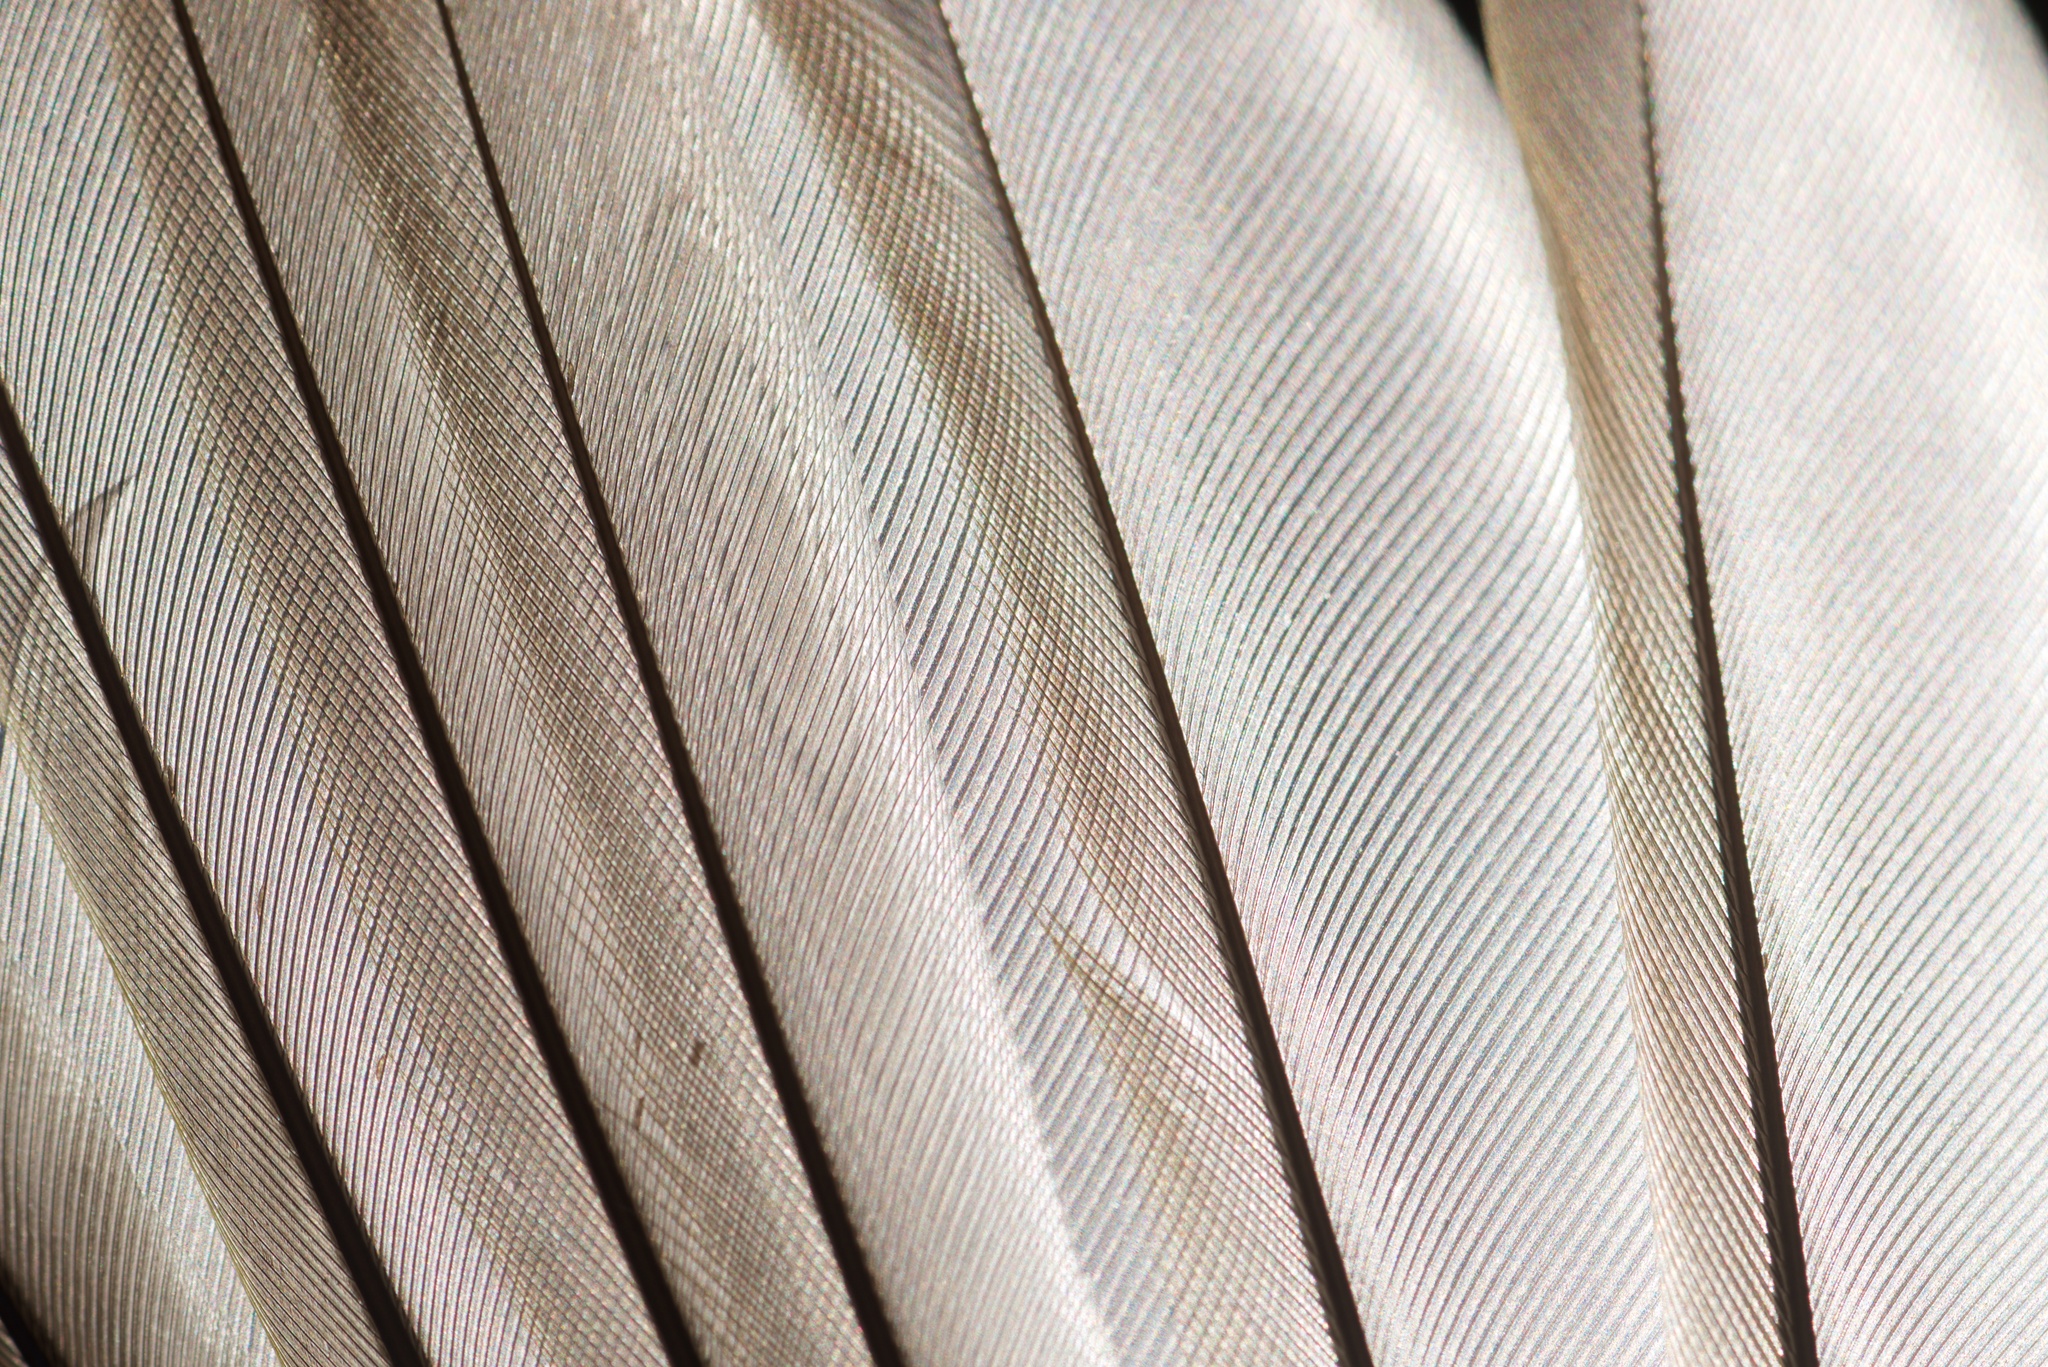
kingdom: Animalia
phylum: Chordata
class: Aves
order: Passeriformes
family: Emberizidae
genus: Emberiza
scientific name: Emberiza citrinella
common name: Yellowhammer
